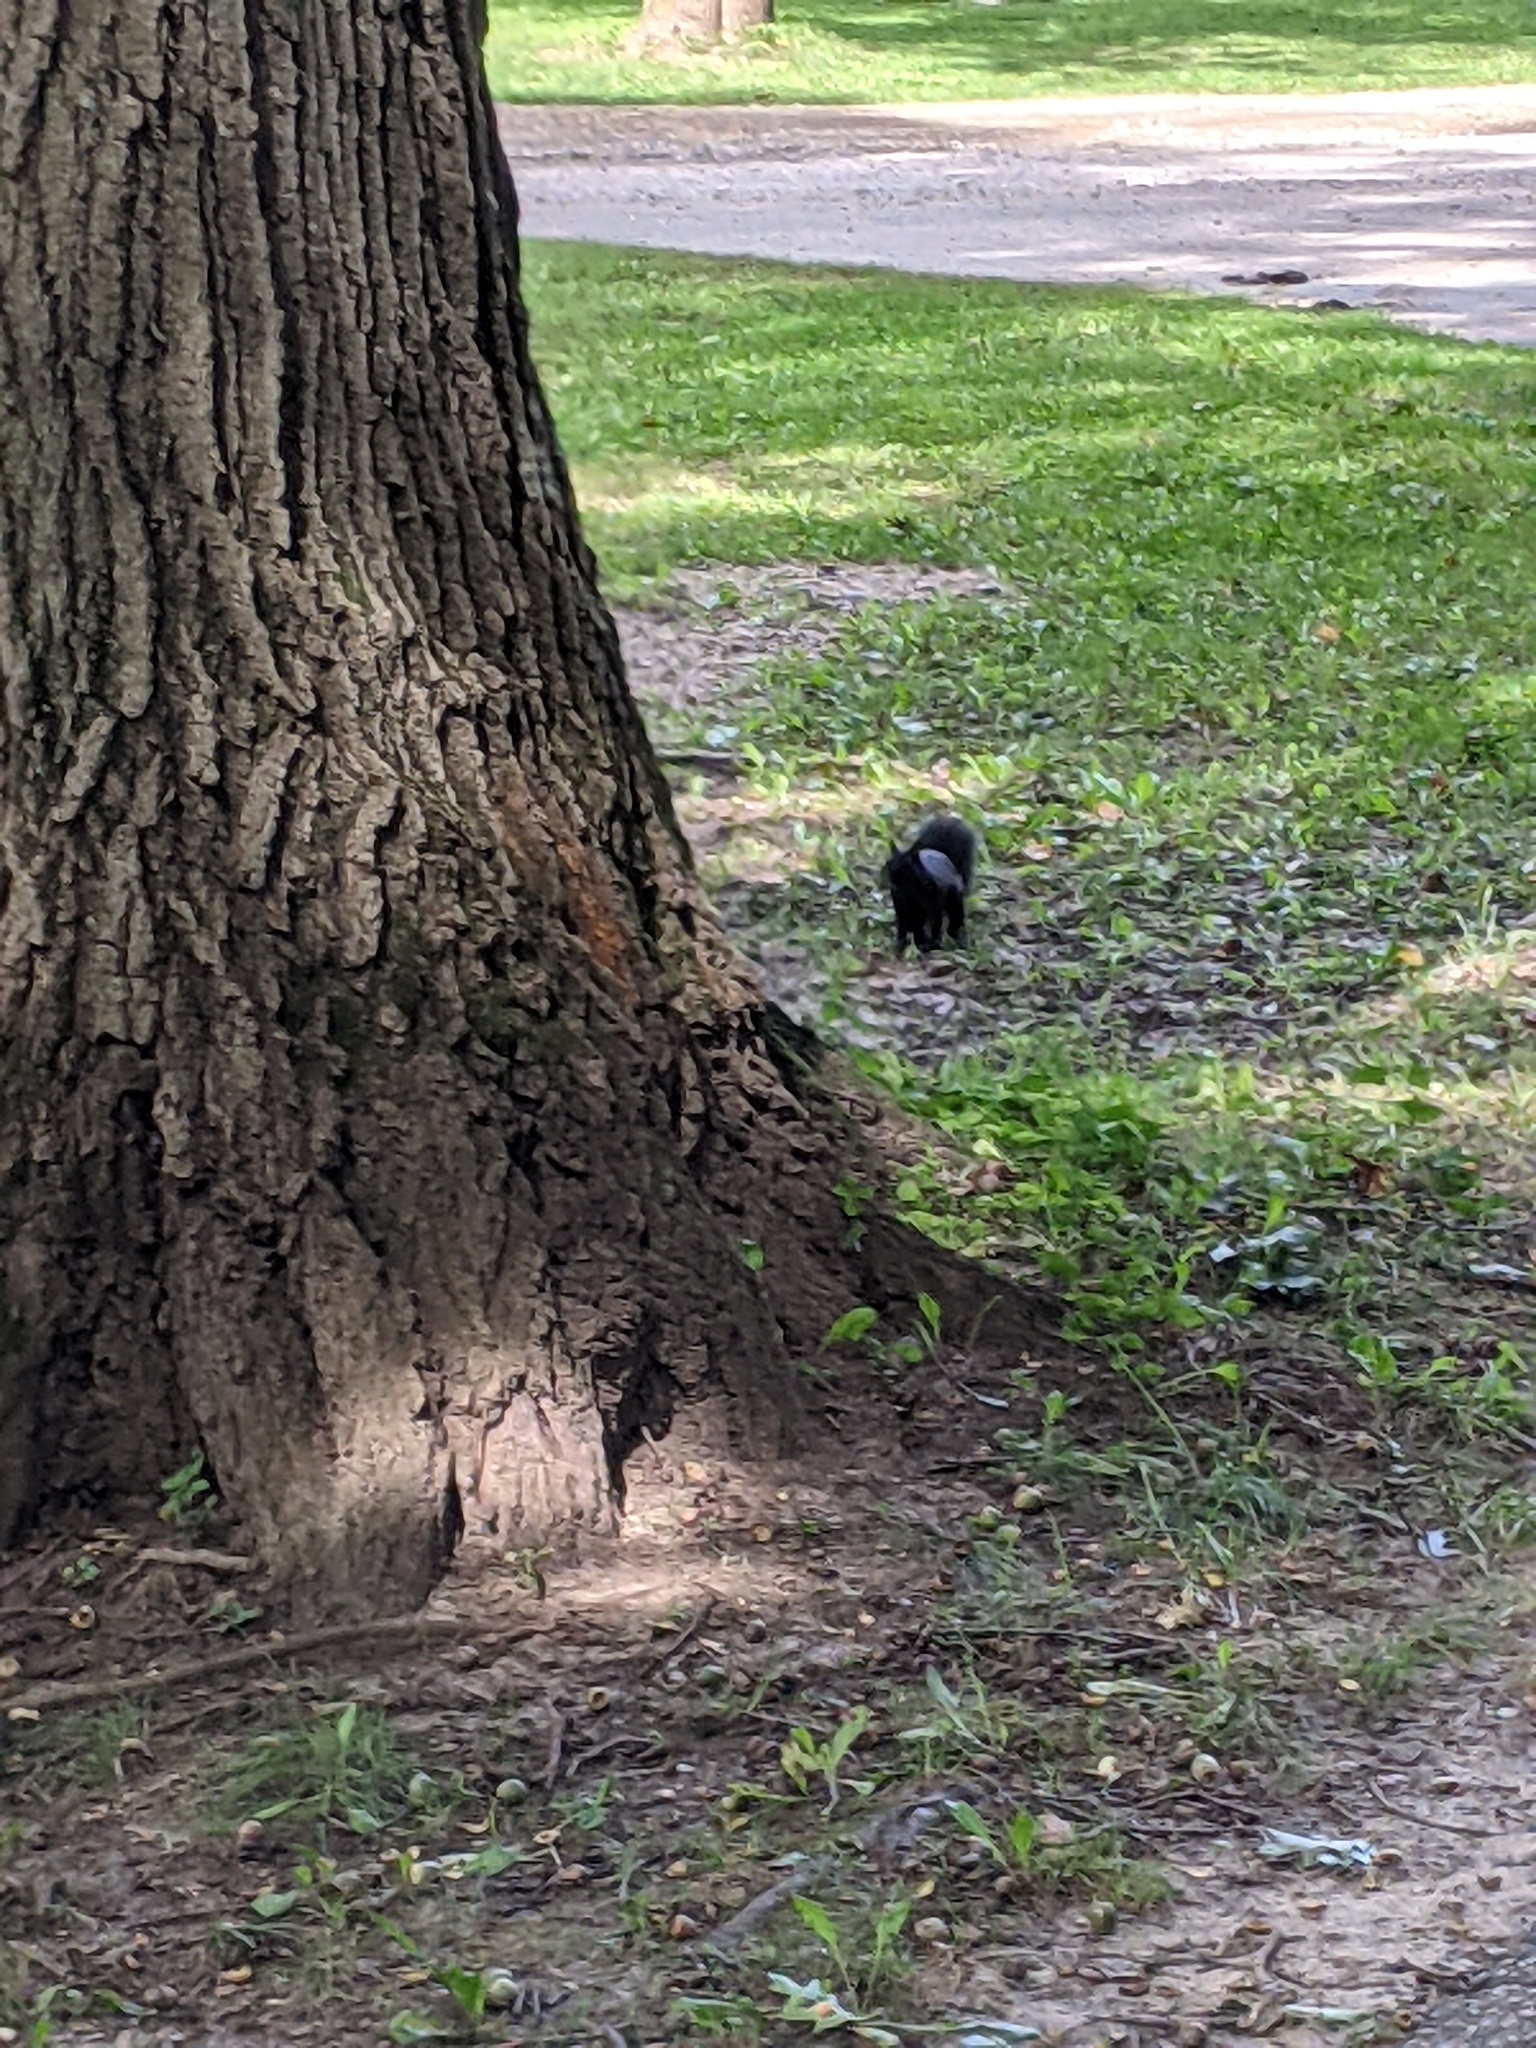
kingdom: Animalia
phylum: Chordata
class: Mammalia
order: Rodentia
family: Sciuridae
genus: Sciurus
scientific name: Sciurus carolinensis
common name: Eastern gray squirrel
